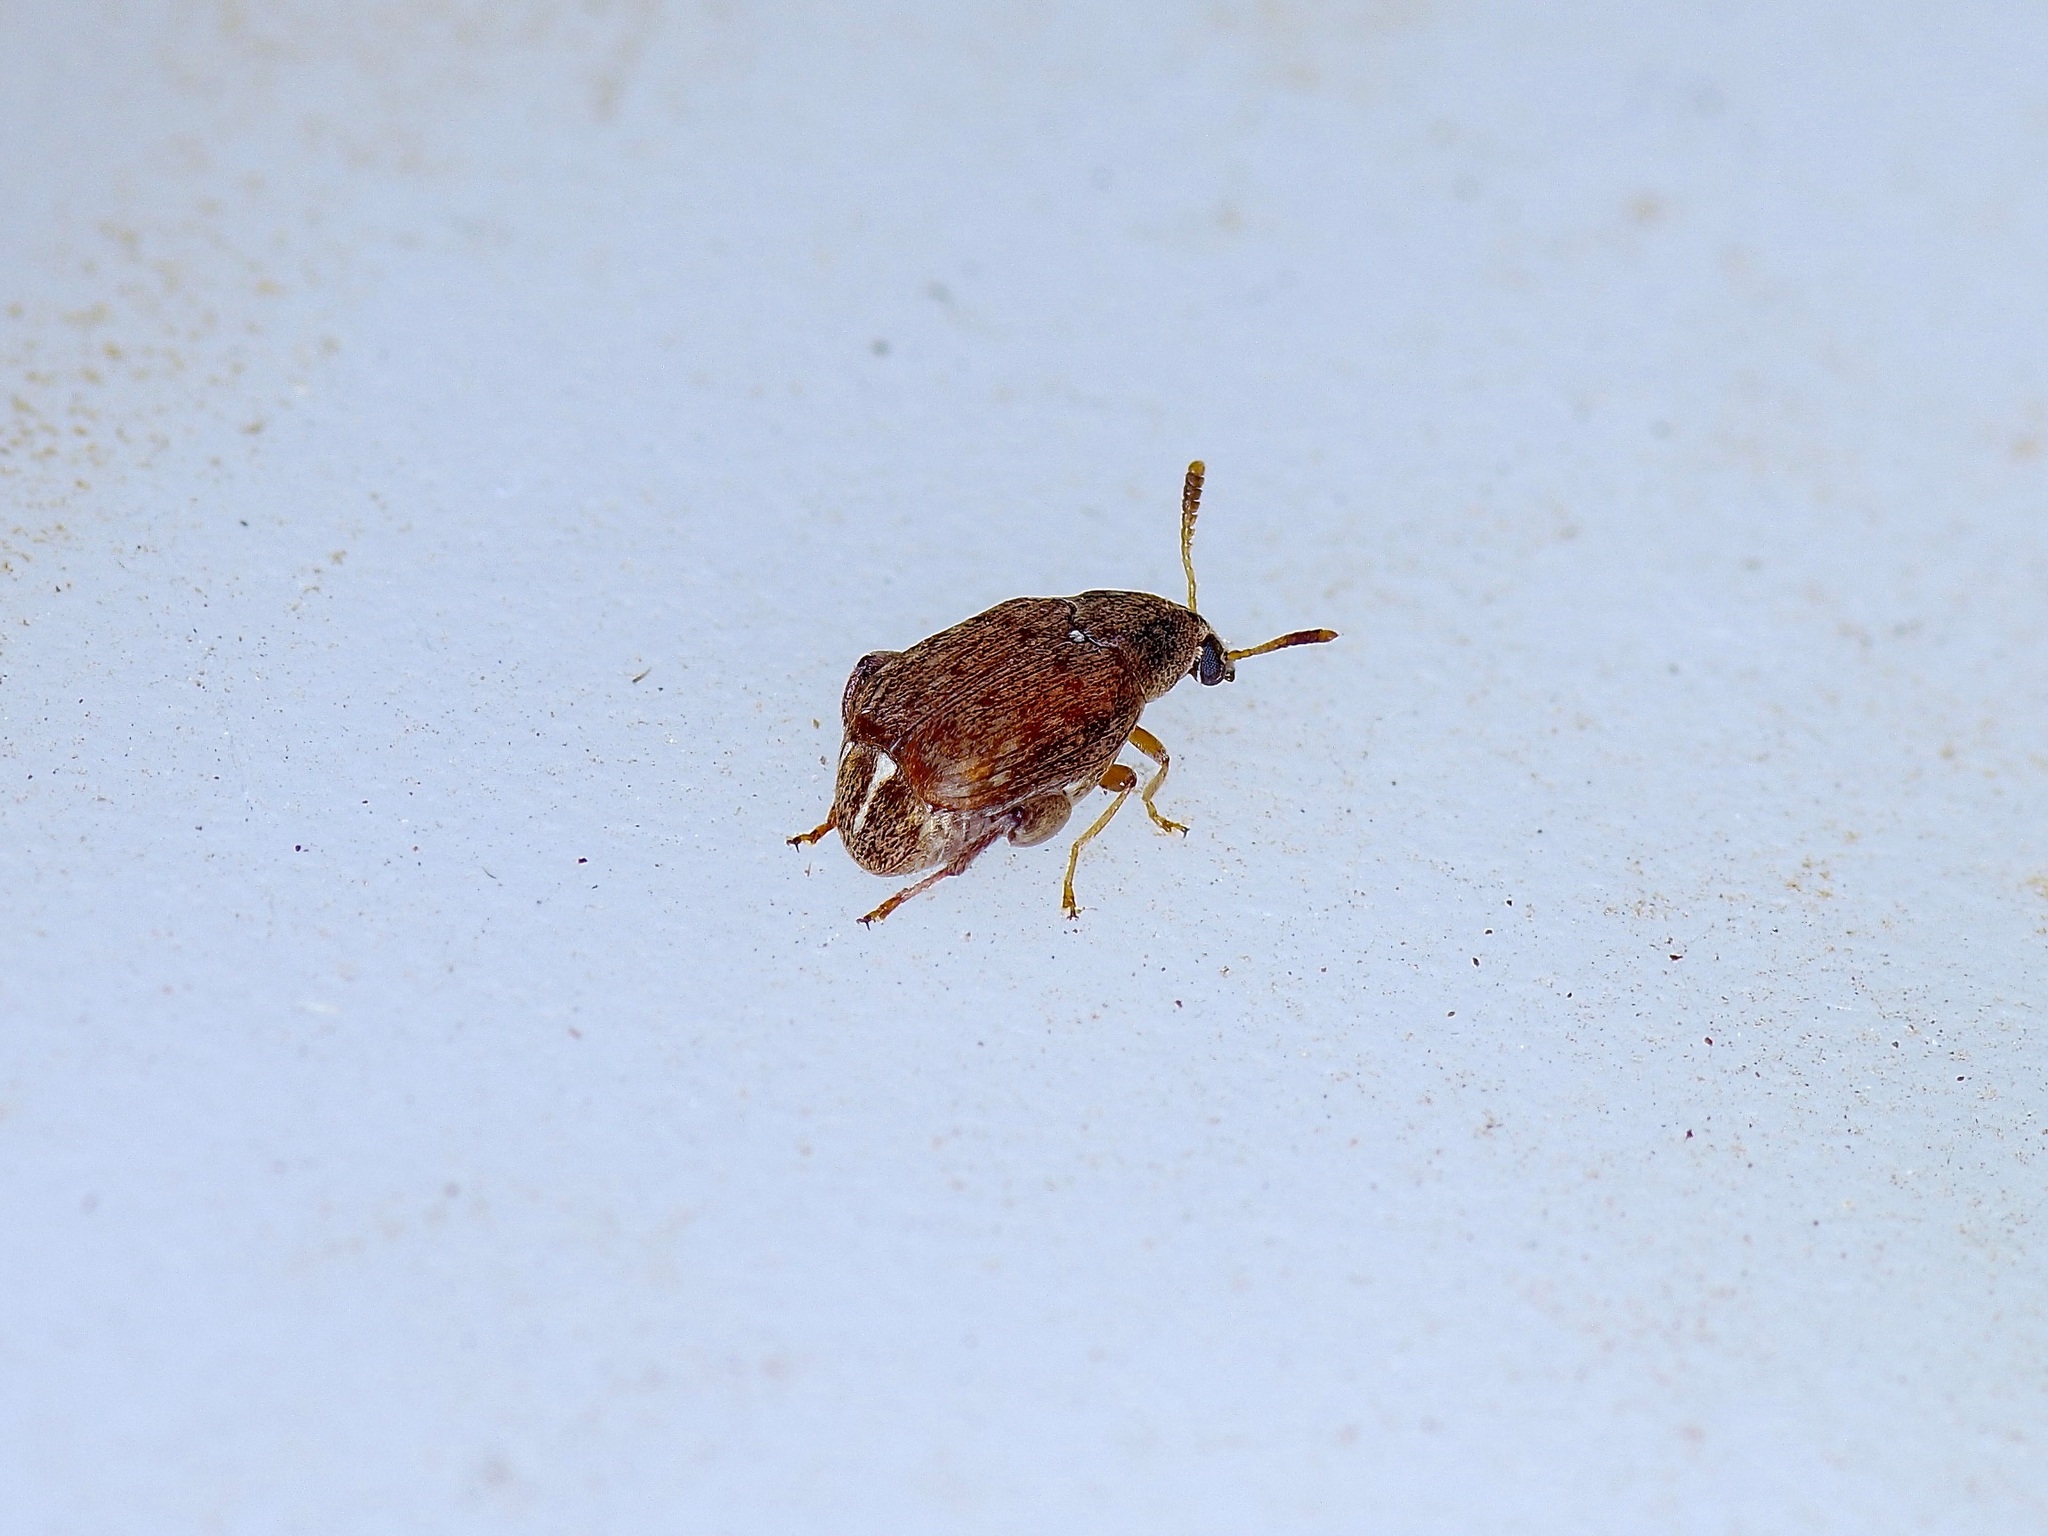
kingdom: Animalia
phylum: Arthropoda
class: Insecta
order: Coleoptera
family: Chrysomelidae
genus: Merobruchus
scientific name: Merobruchus insolitus
